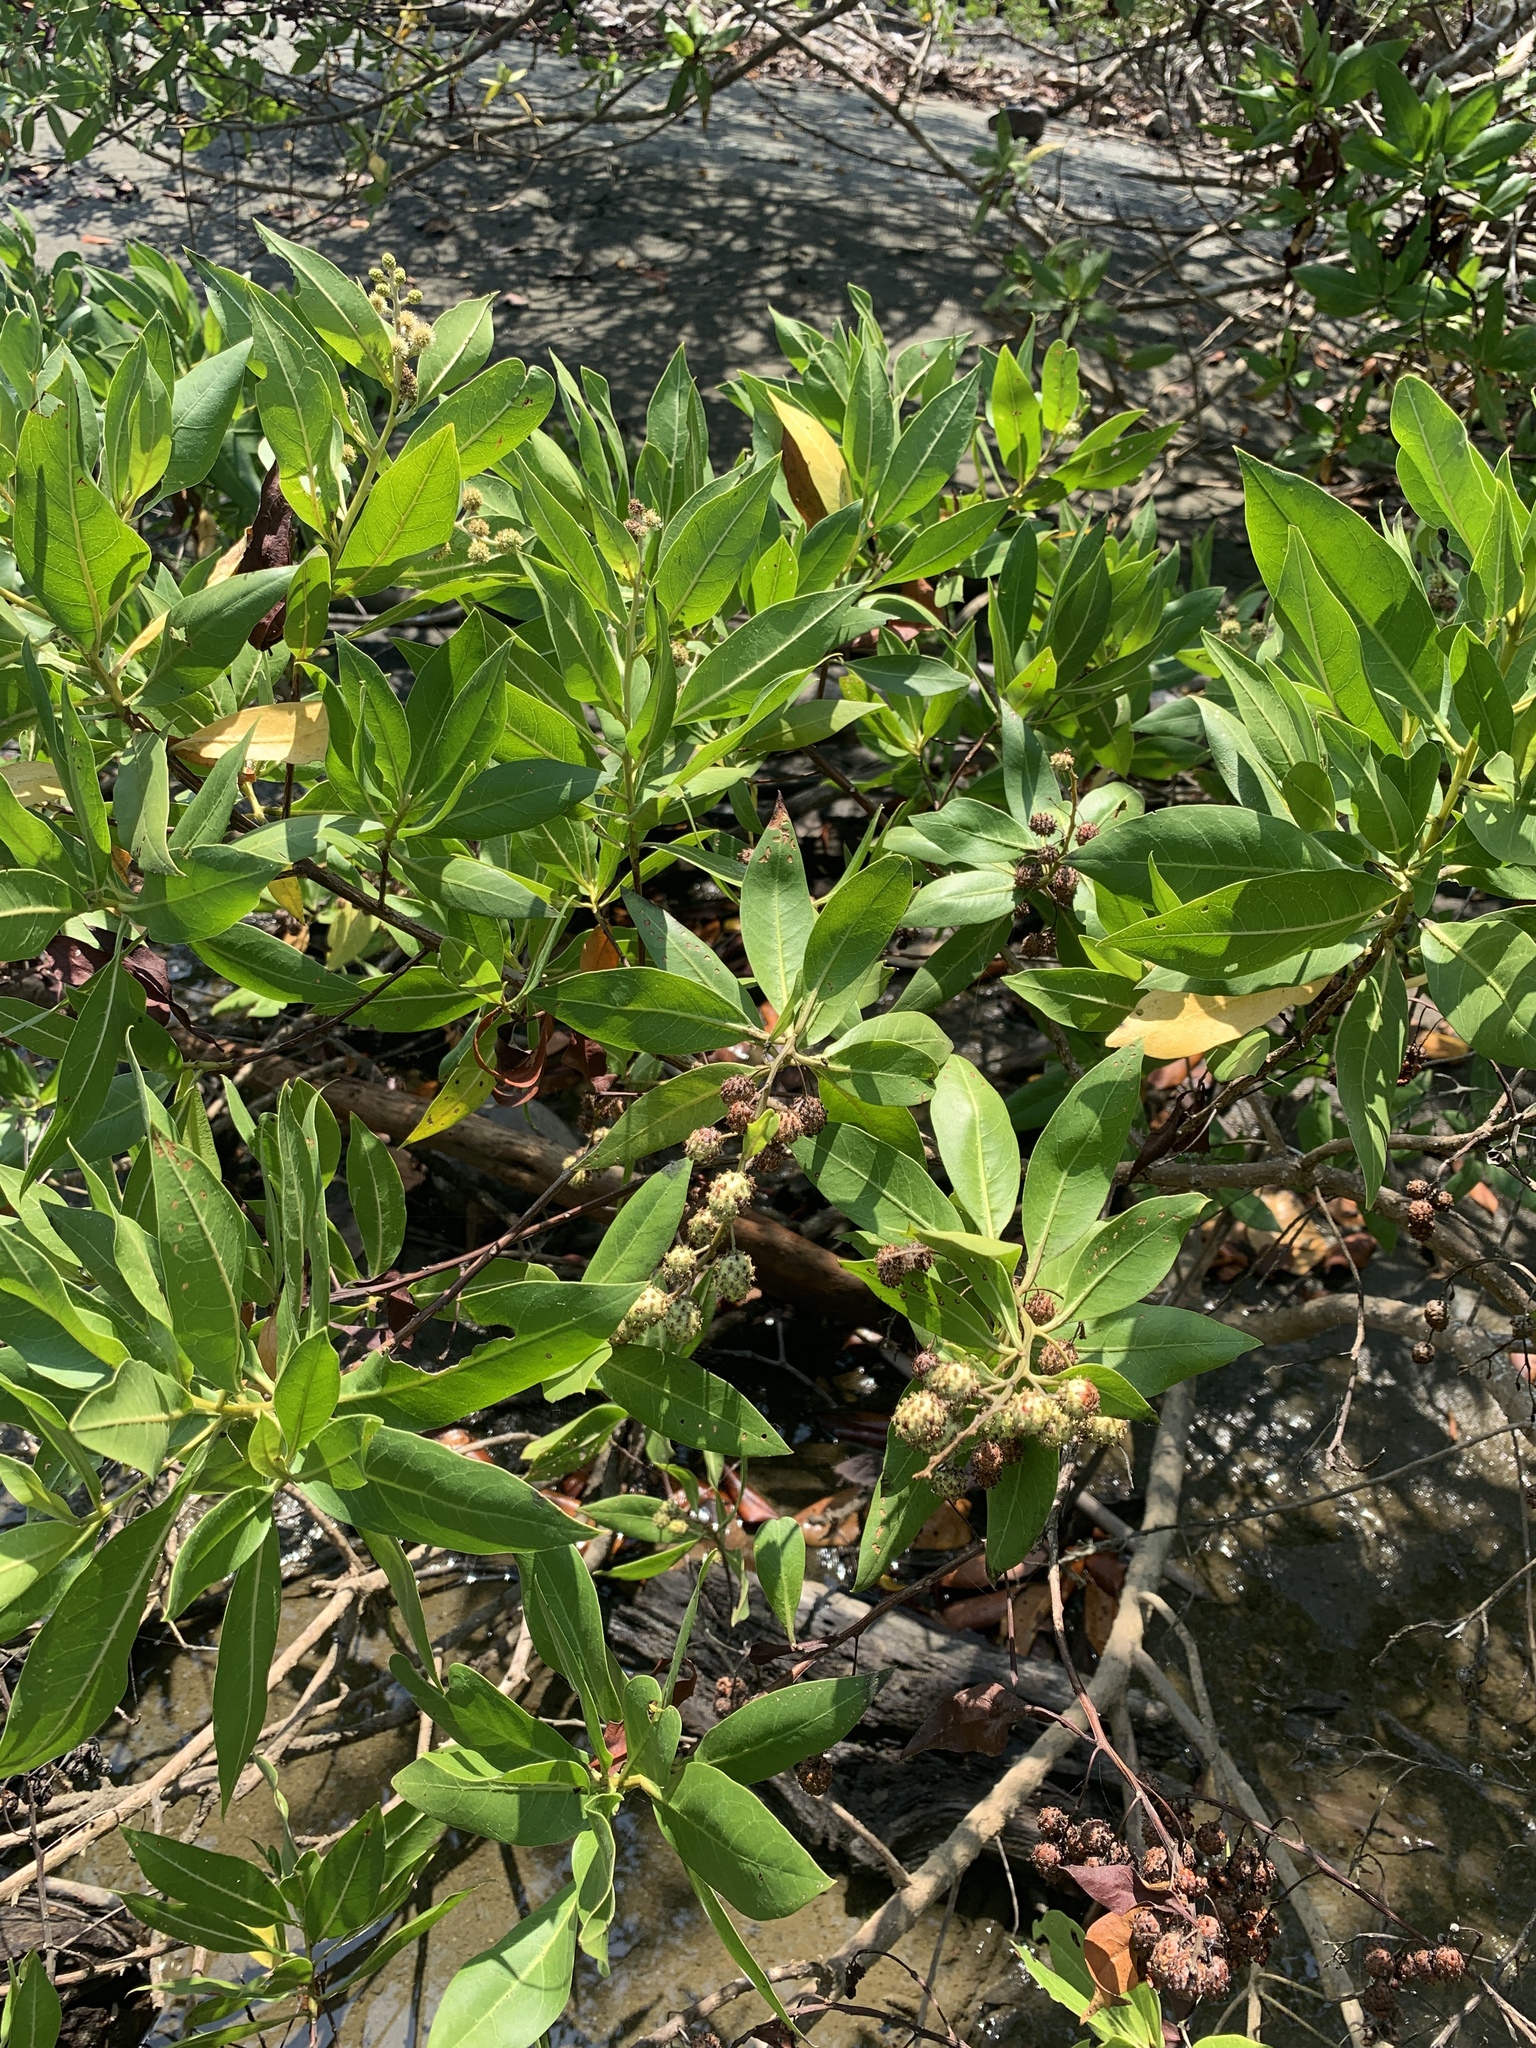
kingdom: Plantae
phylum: Tracheophyta
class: Magnoliopsida
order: Myrtales
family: Combretaceae
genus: Conocarpus
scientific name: Conocarpus erectus
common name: Button mangrove
